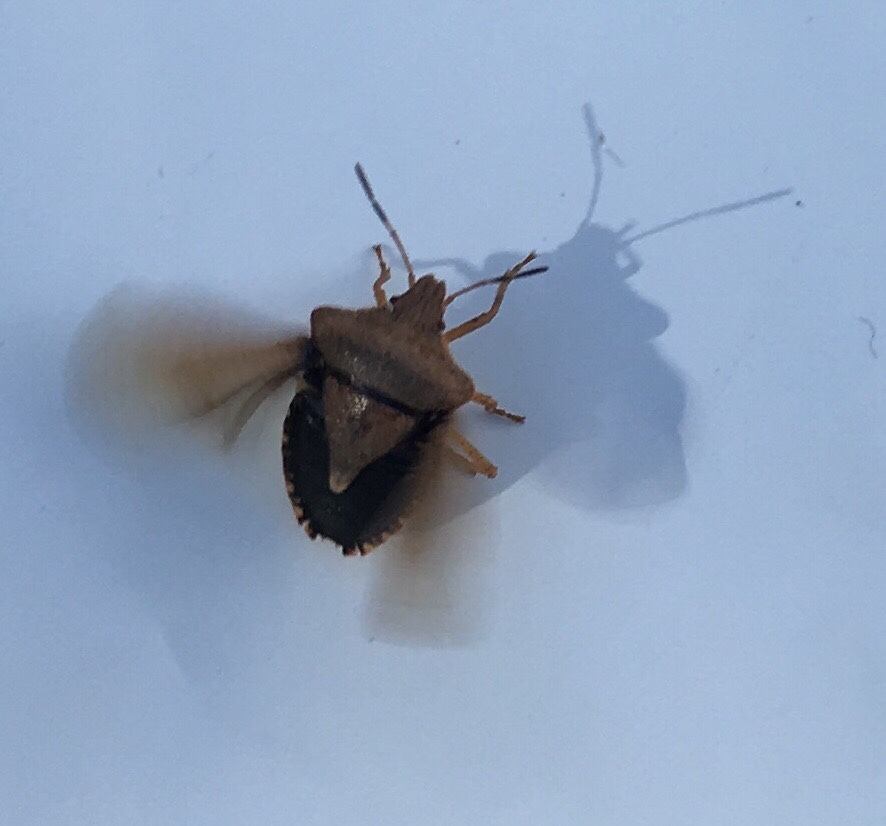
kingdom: Animalia
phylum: Arthropoda
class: Insecta
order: Hemiptera
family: Pentatomidae
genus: Euschistus
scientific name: Euschistus servus
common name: Brown stink bug
